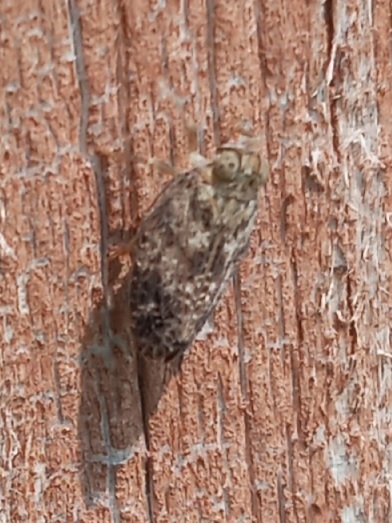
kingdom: Animalia
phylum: Arthropoda
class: Insecta
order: Hemiptera
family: Issidae
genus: Thionia
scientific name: Thionia bullata
